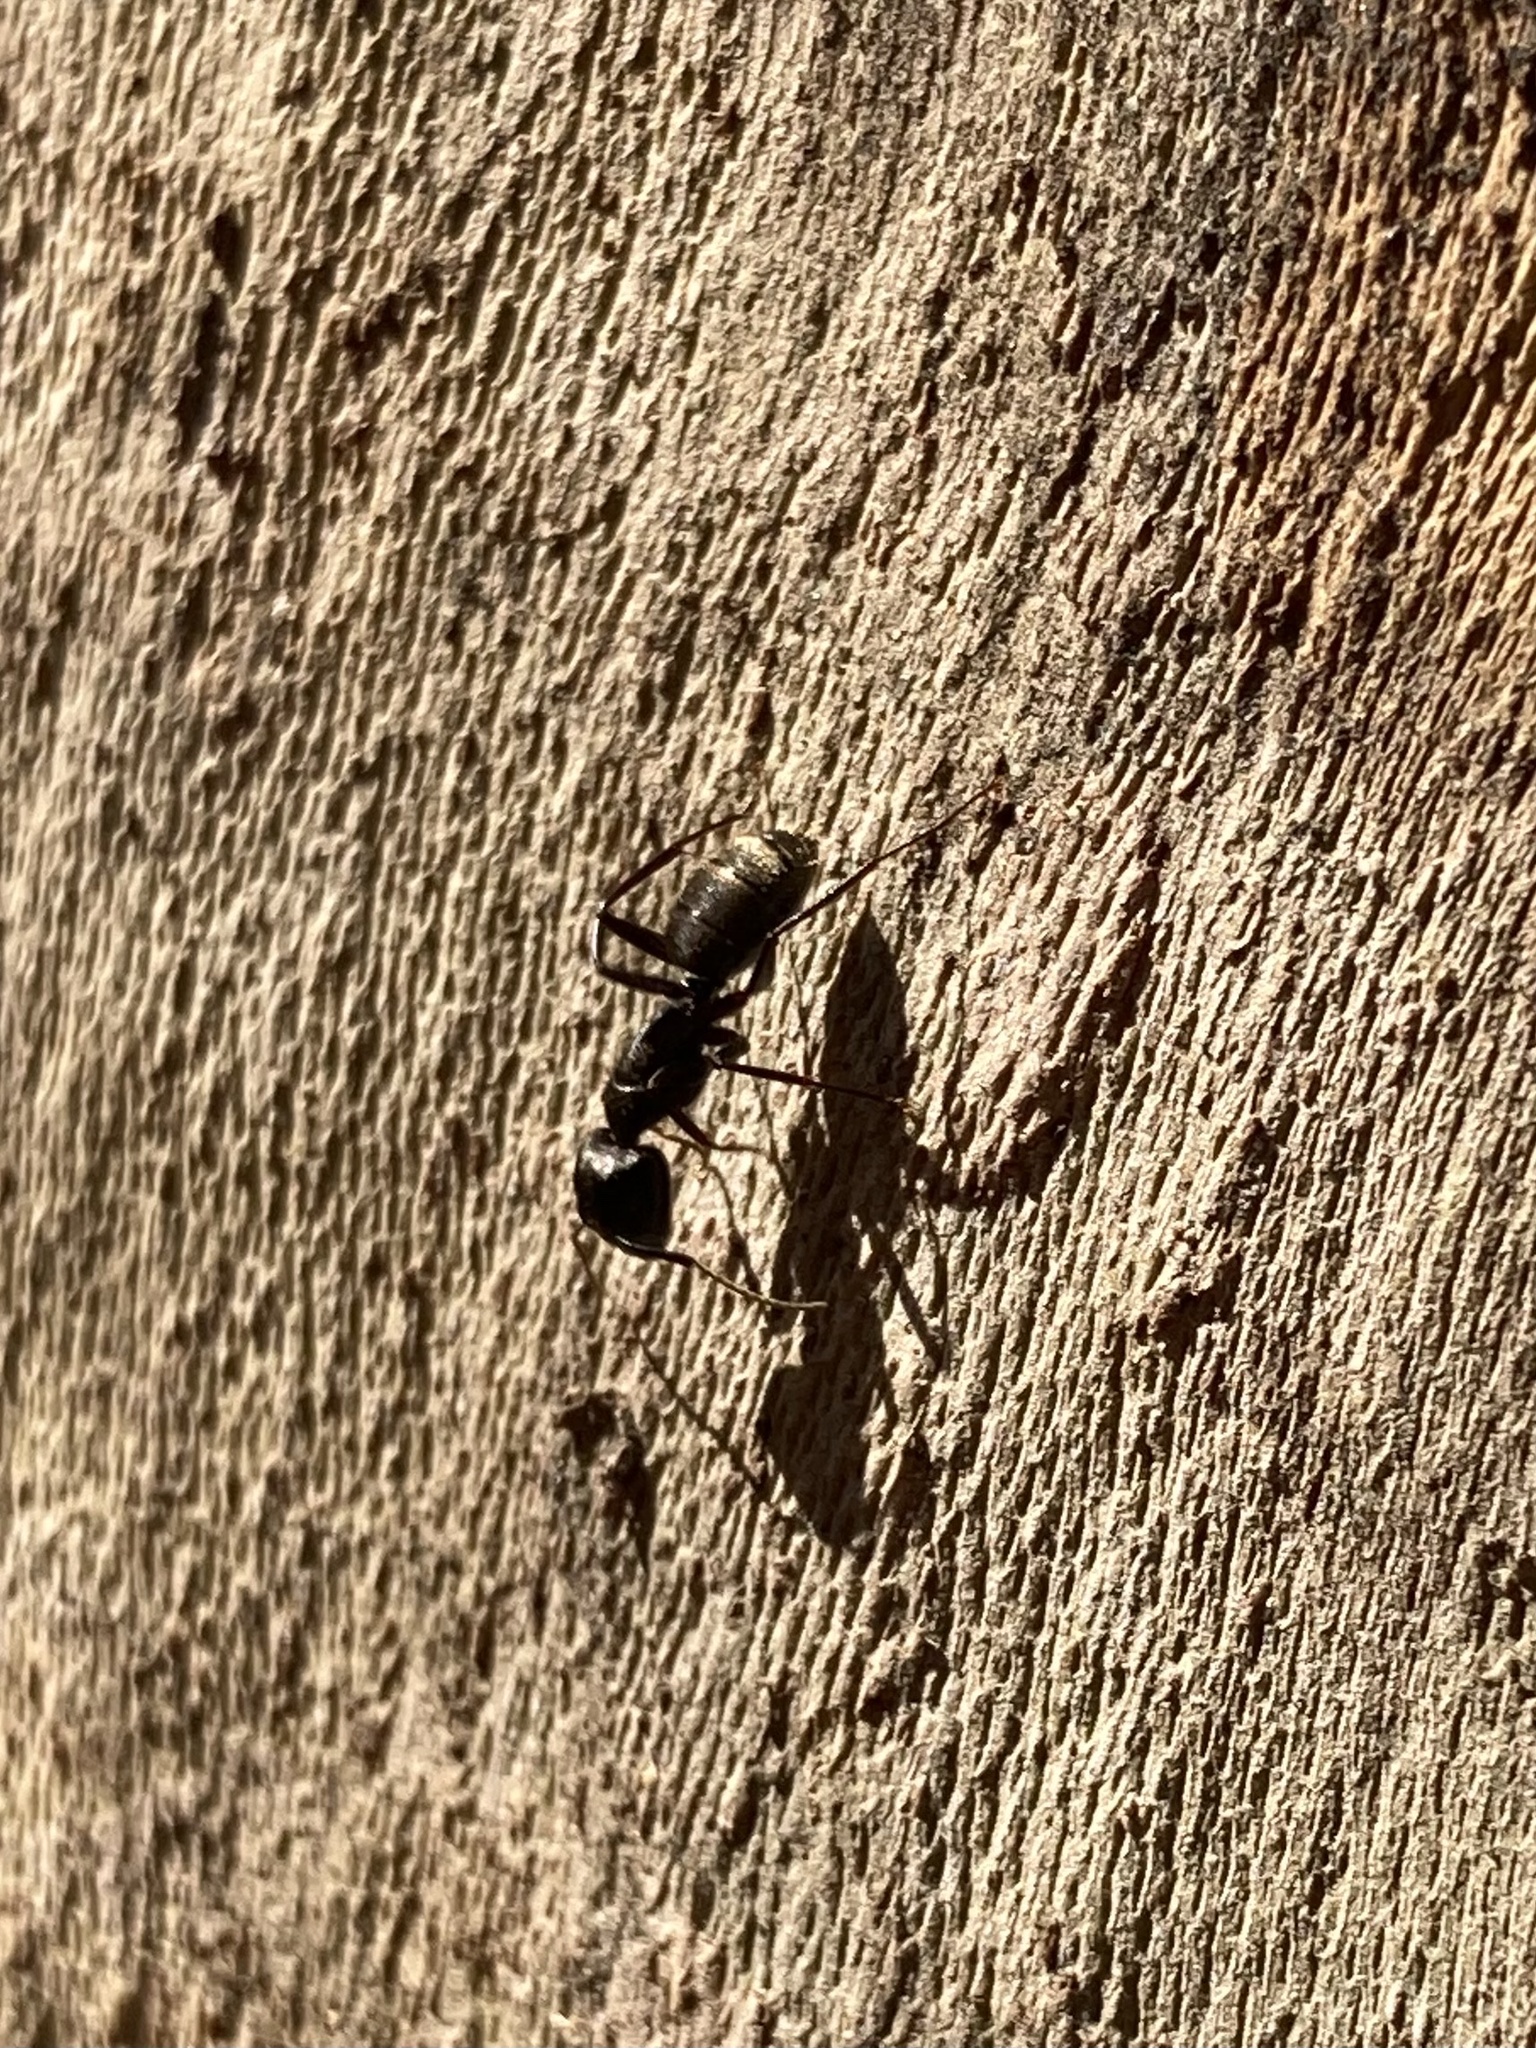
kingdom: Animalia
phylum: Arthropoda
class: Insecta
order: Hymenoptera
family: Formicidae
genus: Camponotus
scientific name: Camponotus pennsylvanicus
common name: Black carpenter ant
